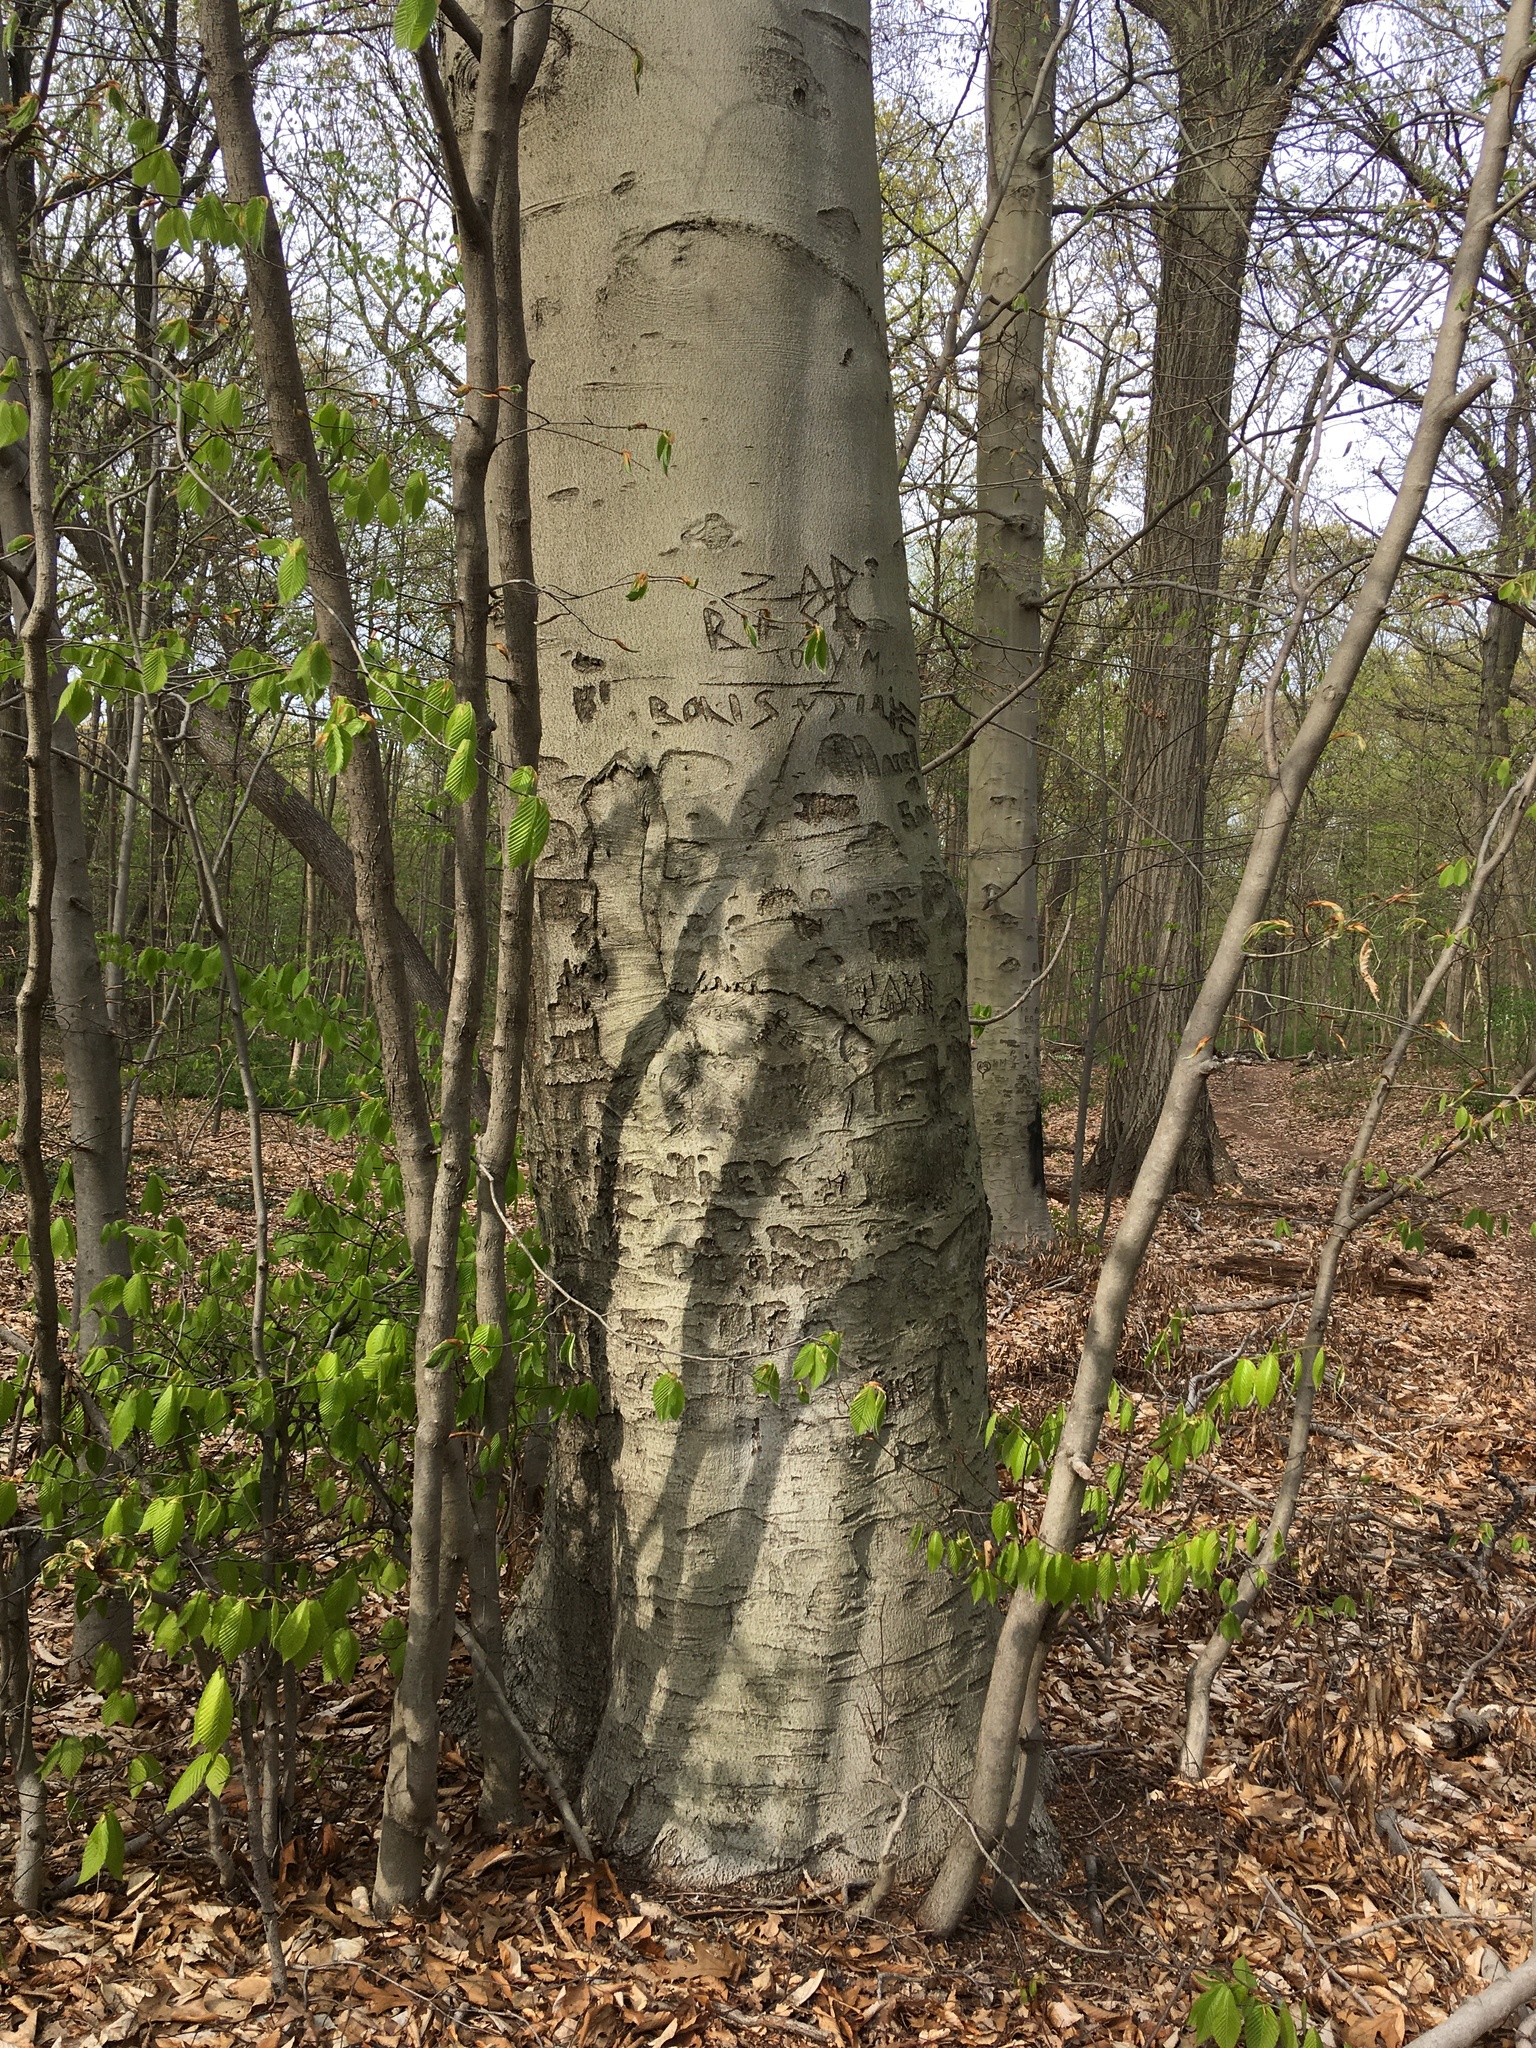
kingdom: Plantae
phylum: Tracheophyta
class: Magnoliopsida
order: Fagales
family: Fagaceae
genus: Fagus
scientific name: Fagus grandifolia
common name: American beech
